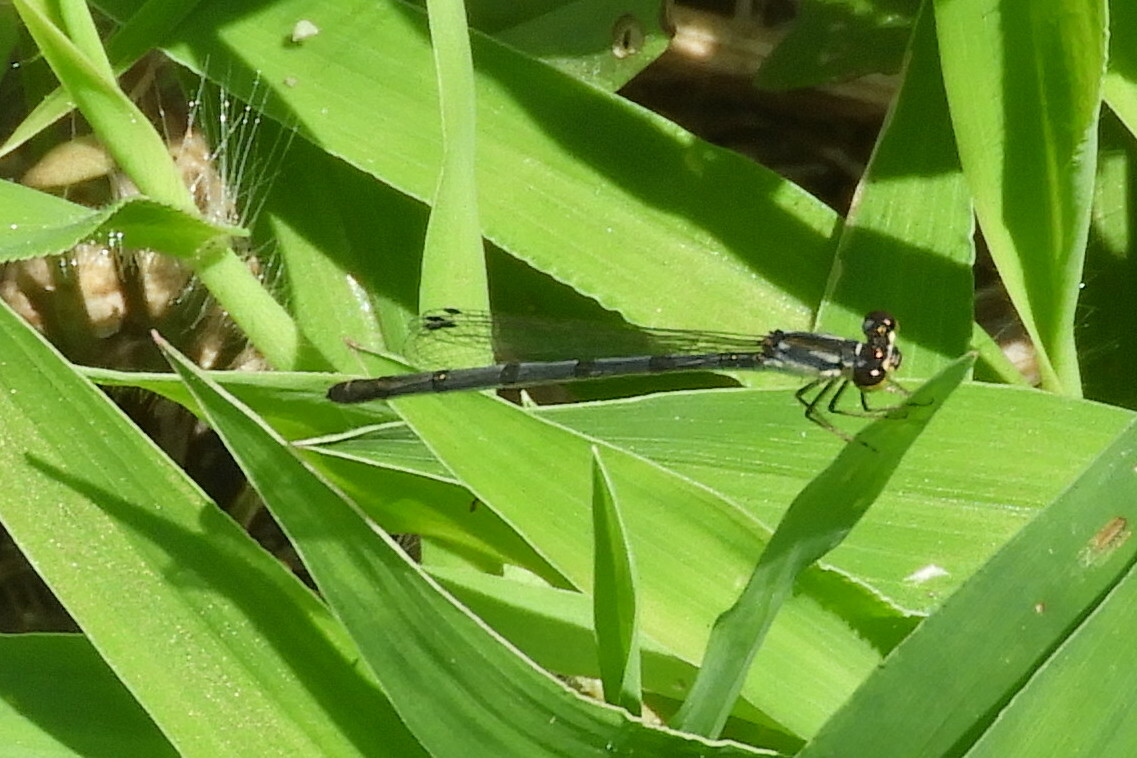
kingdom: Animalia
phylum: Arthropoda
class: Insecta
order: Odonata
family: Coenagrionidae
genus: Ischnura
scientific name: Ischnura posita
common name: Fragile forktail
